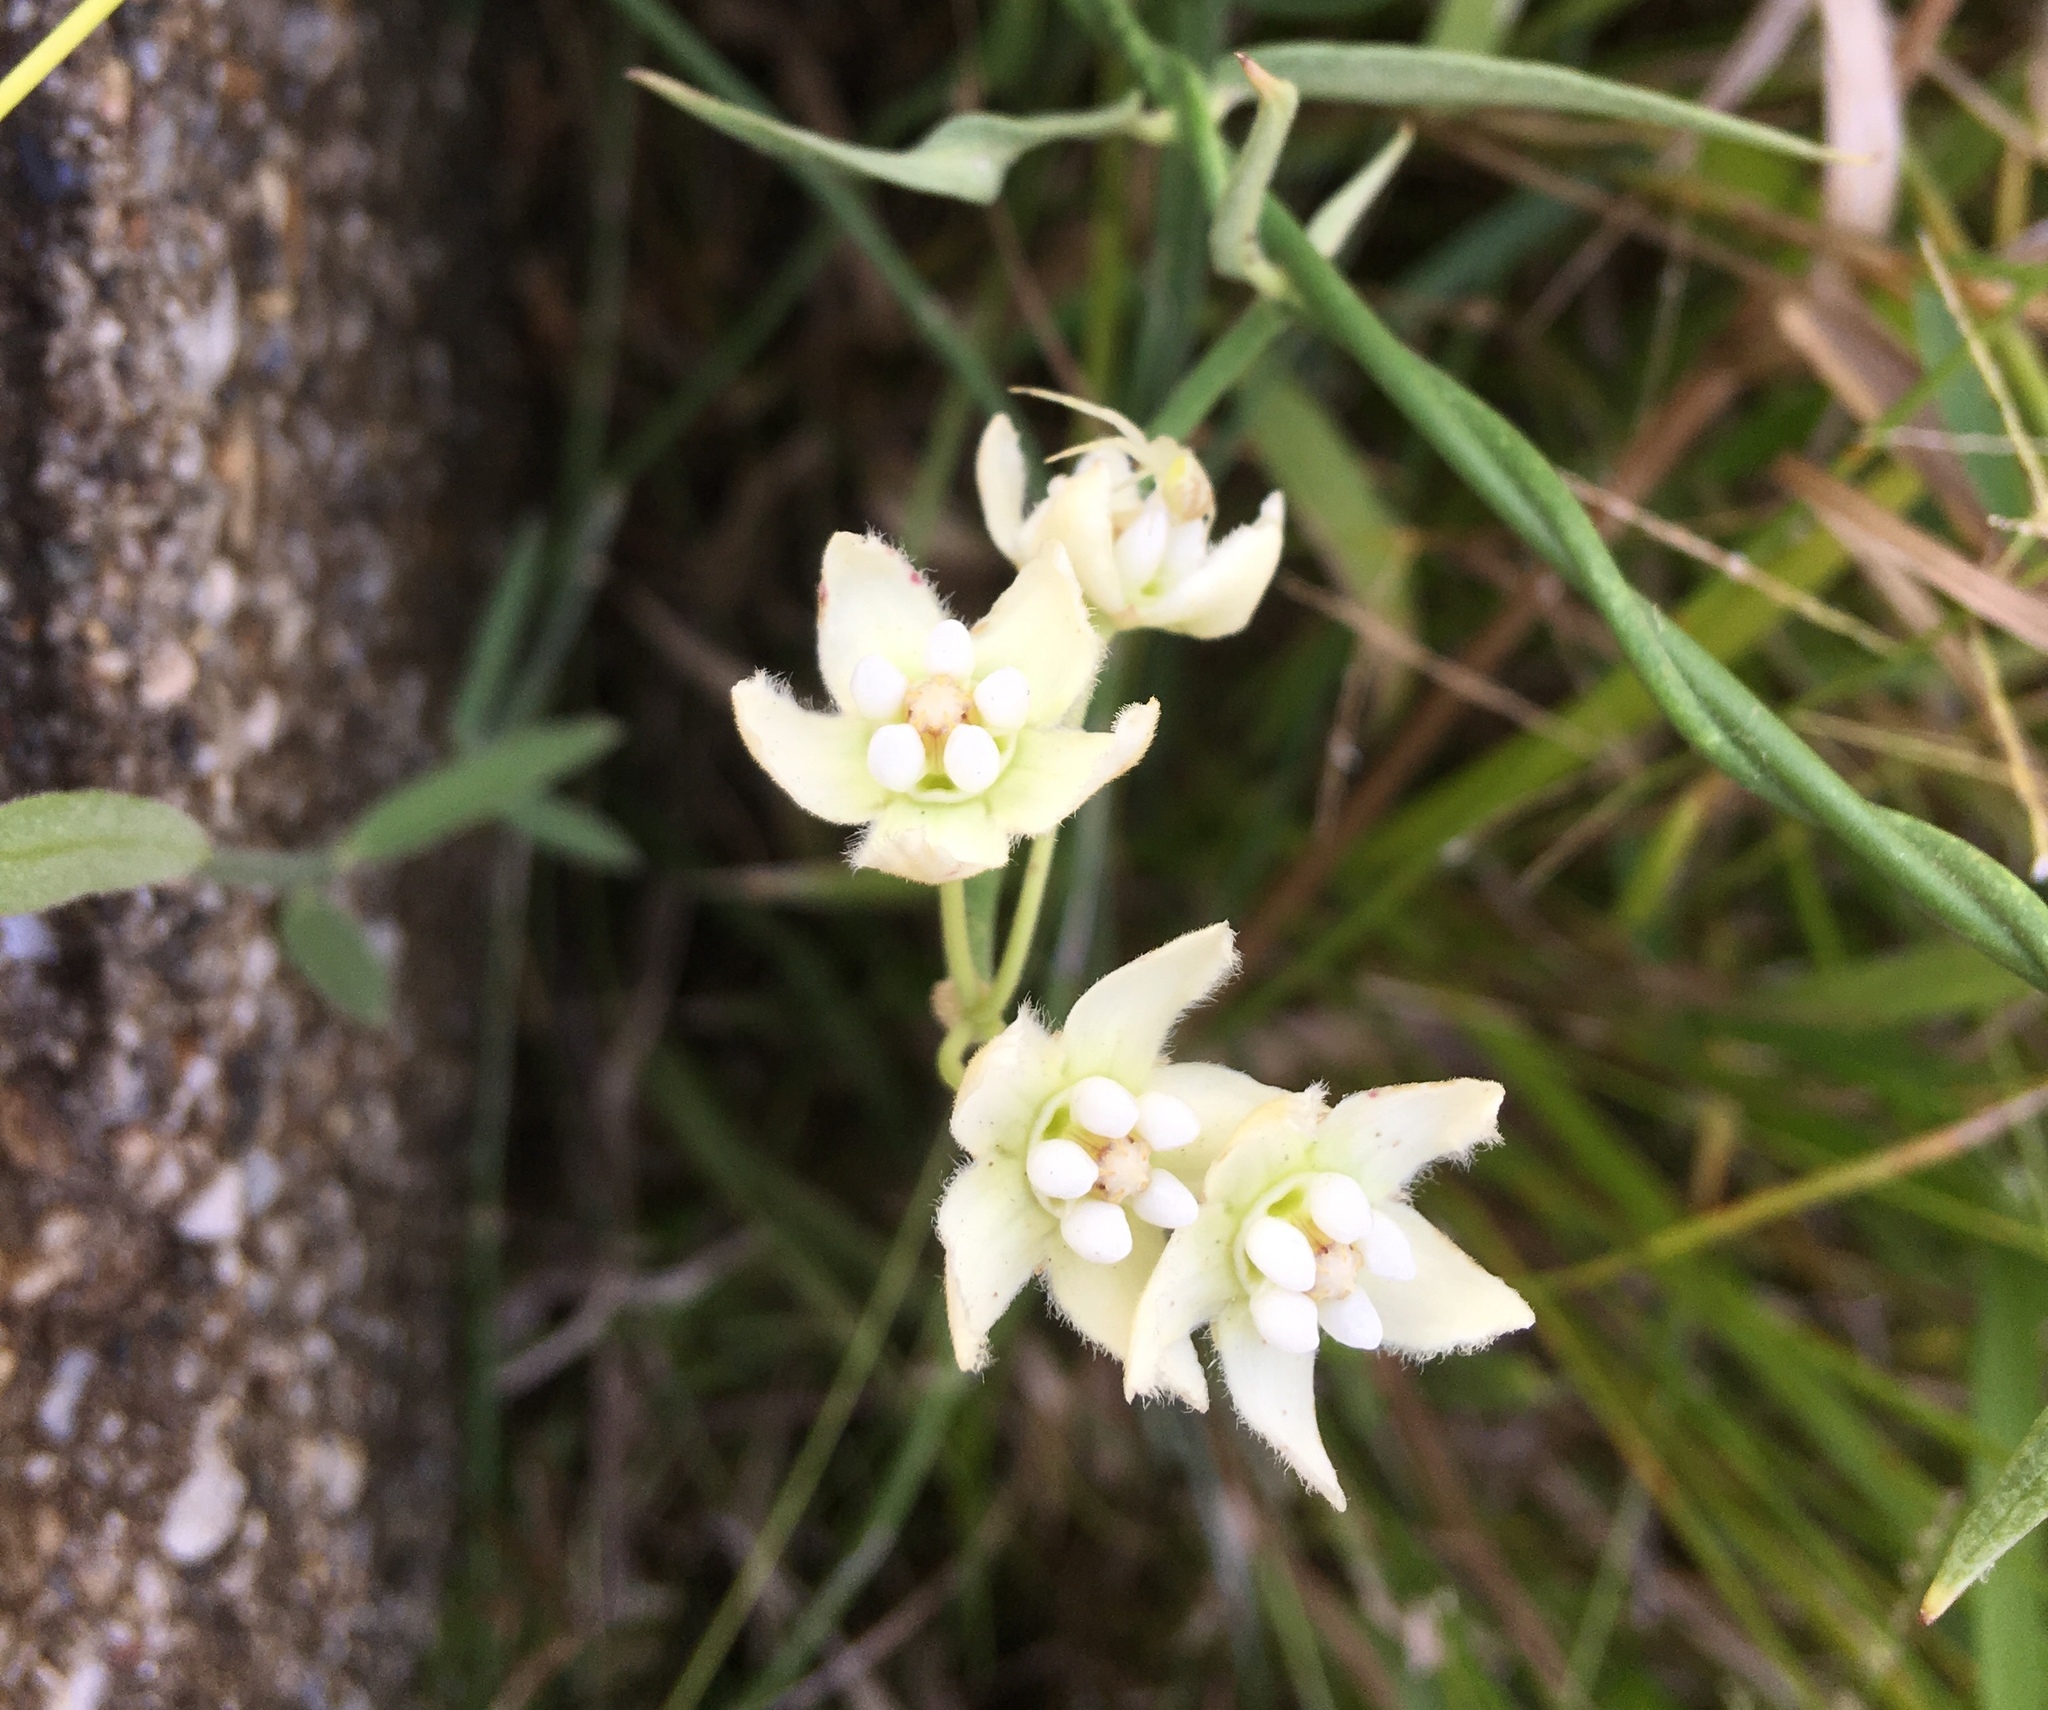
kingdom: Plantae
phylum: Tracheophyta
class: Magnoliopsida
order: Gentianales
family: Apocynaceae
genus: Funastrum
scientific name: Funastrum clausum
